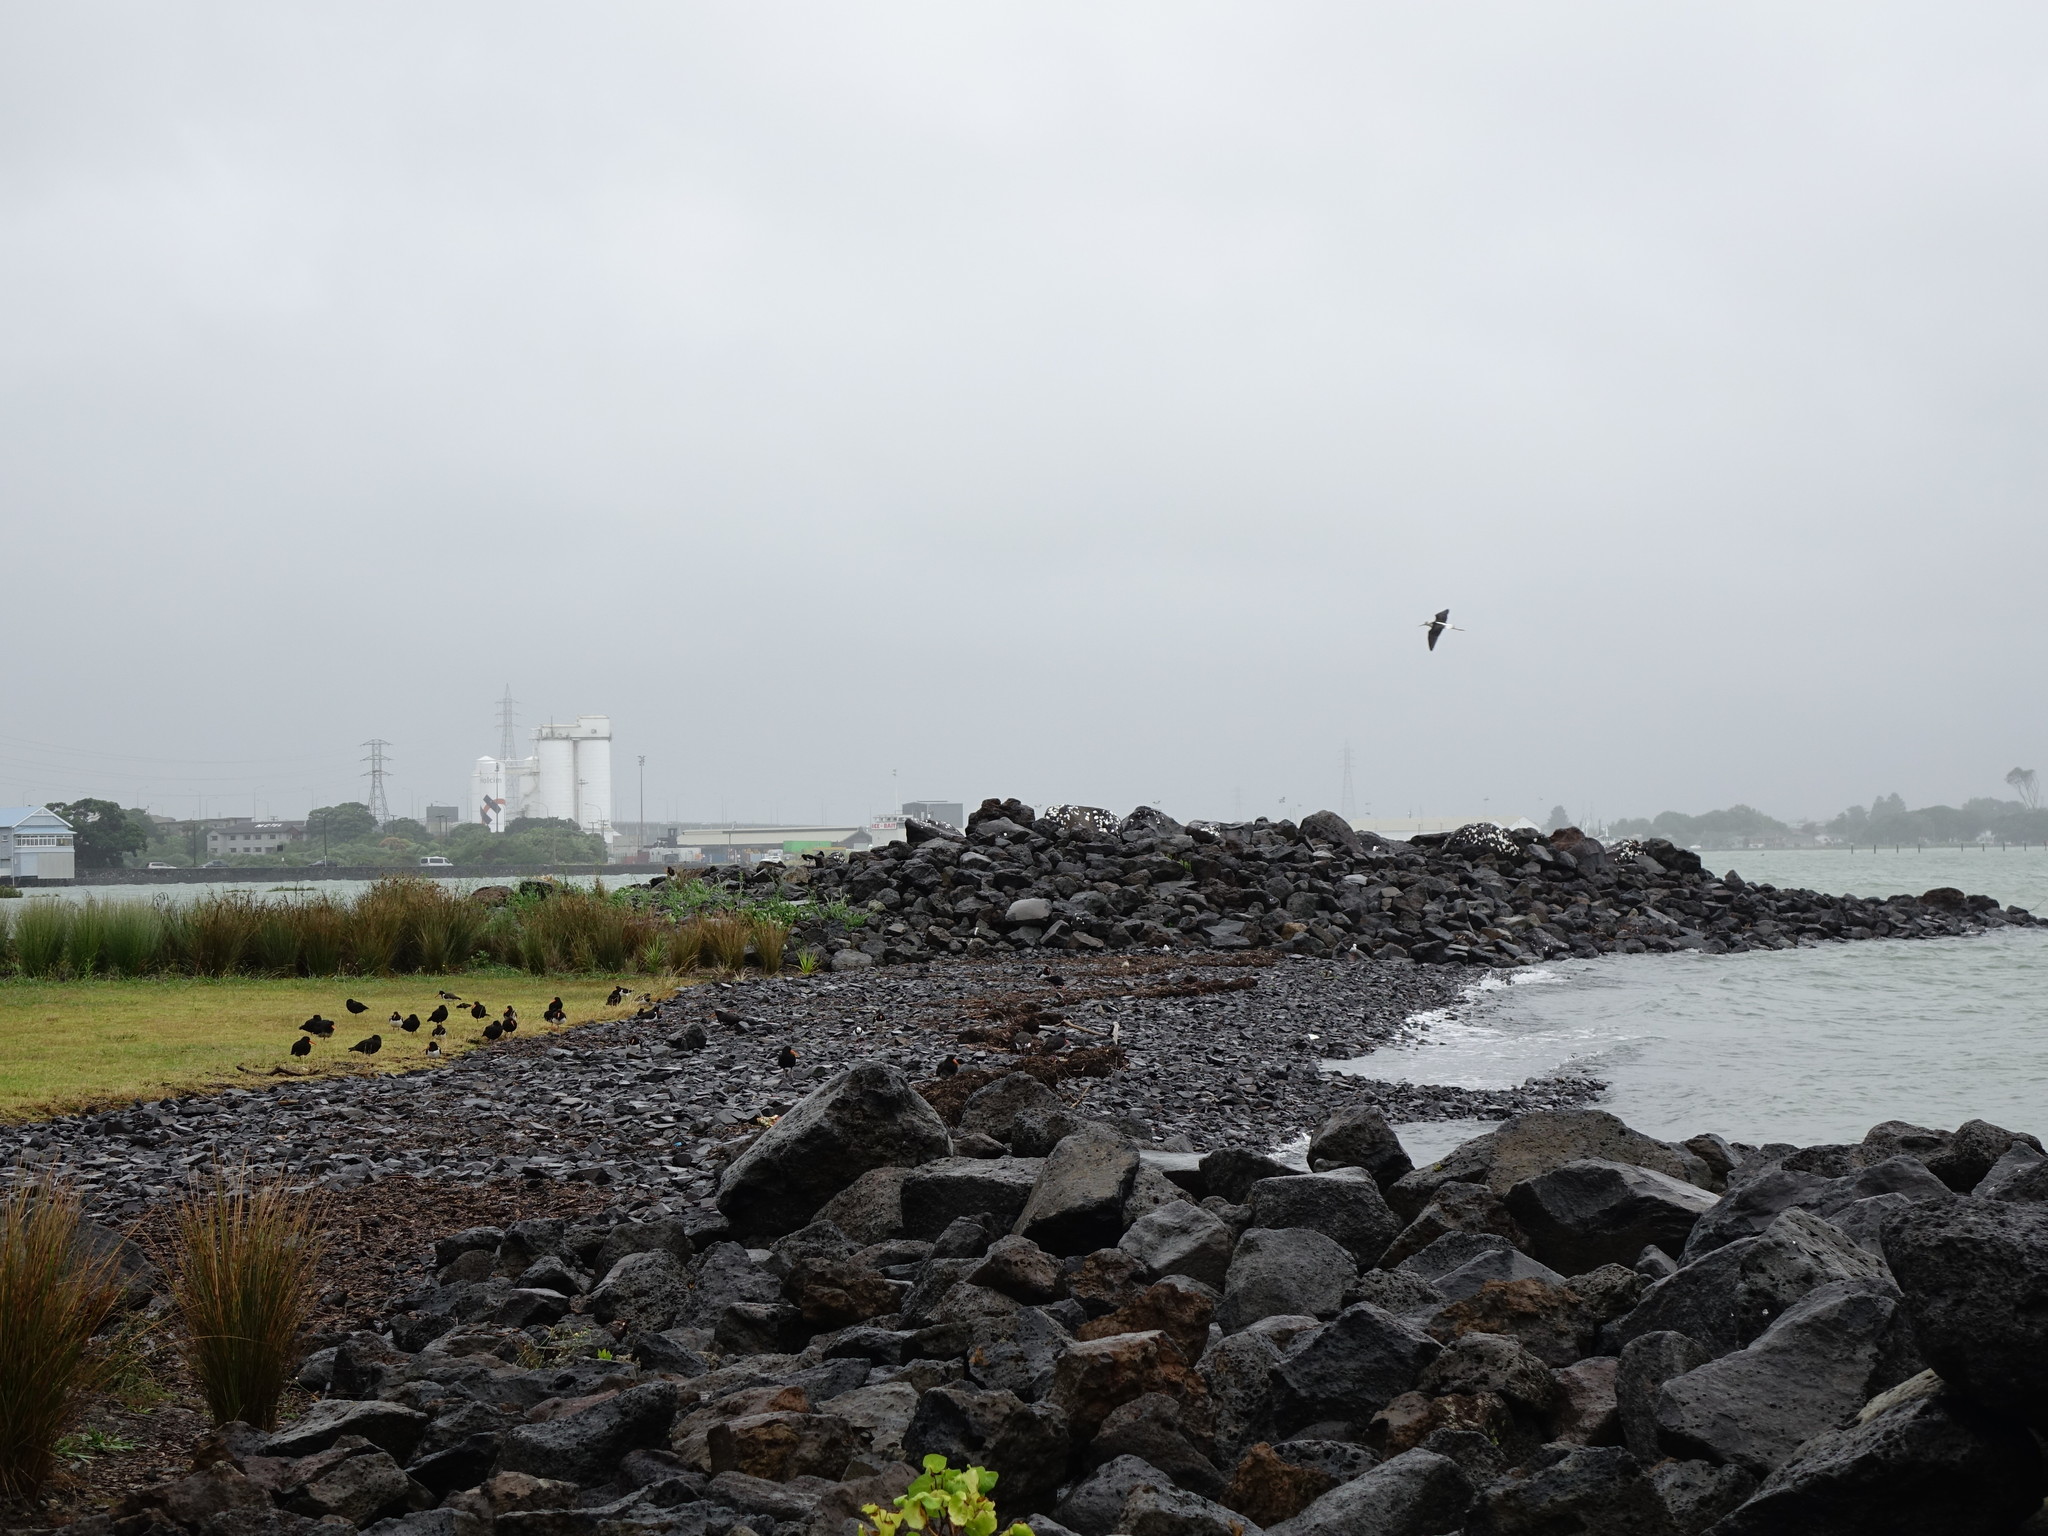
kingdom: Animalia
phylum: Chordata
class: Aves
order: Charadriiformes
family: Haematopodidae
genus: Haematopus
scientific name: Haematopus unicolor
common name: Variable oystercatcher
